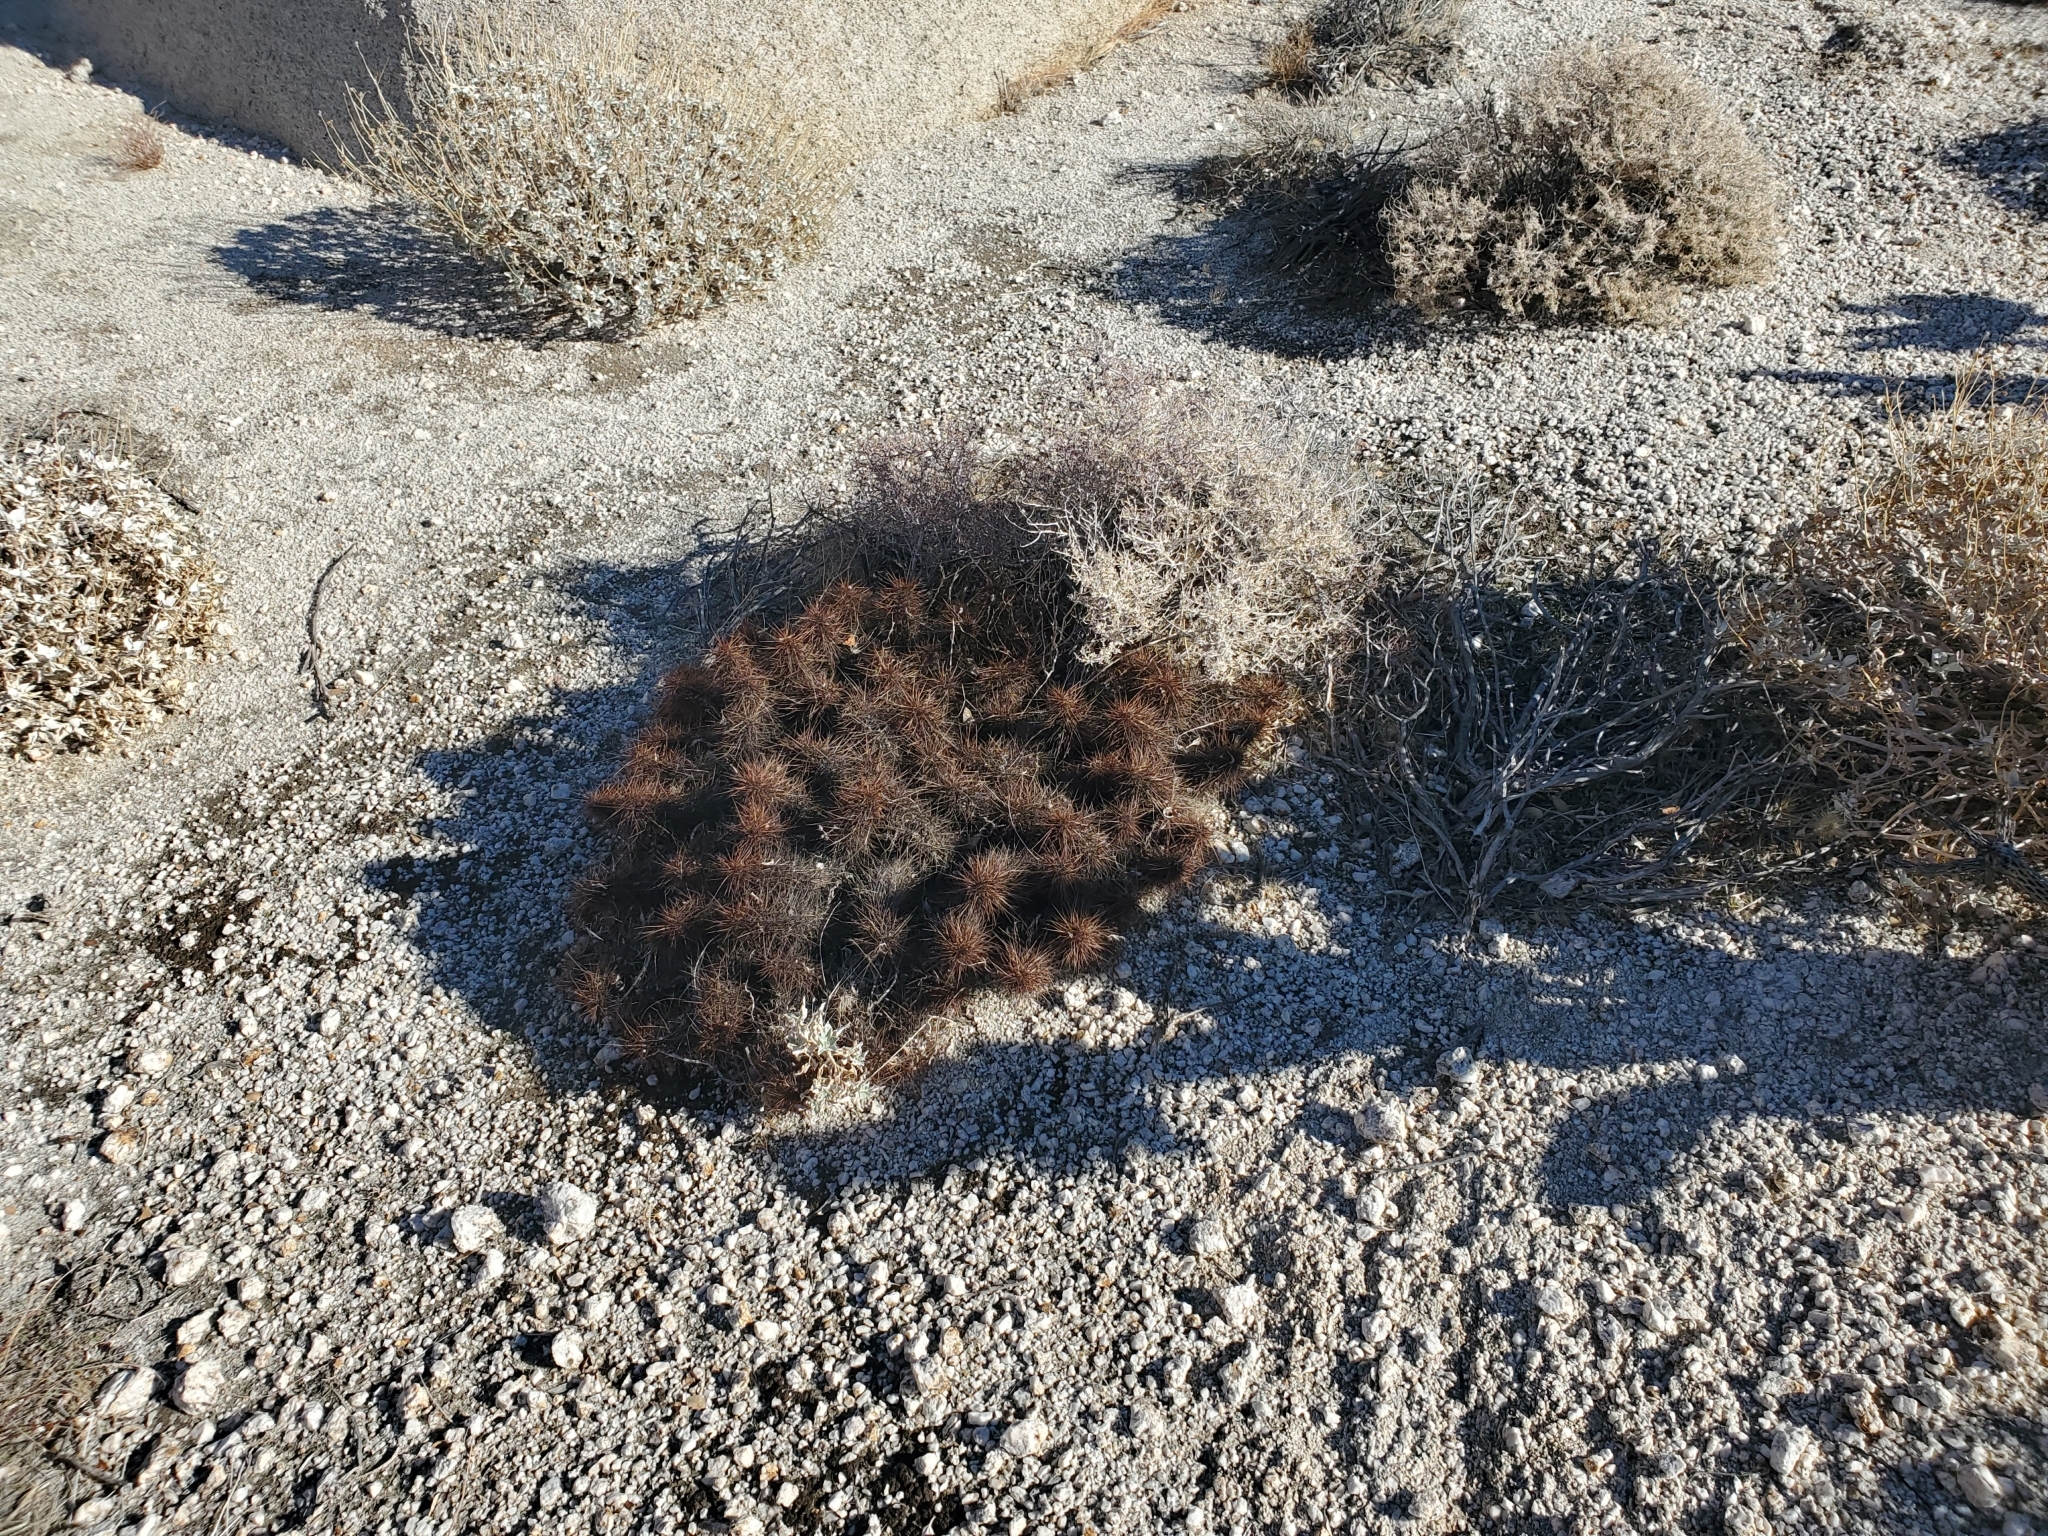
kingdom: Plantae
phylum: Tracheophyta
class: Magnoliopsida
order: Caryophyllales
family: Cactaceae
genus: Echinocereus
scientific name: Echinocereus engelmannii
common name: Engelmann's hedgehog cactus
